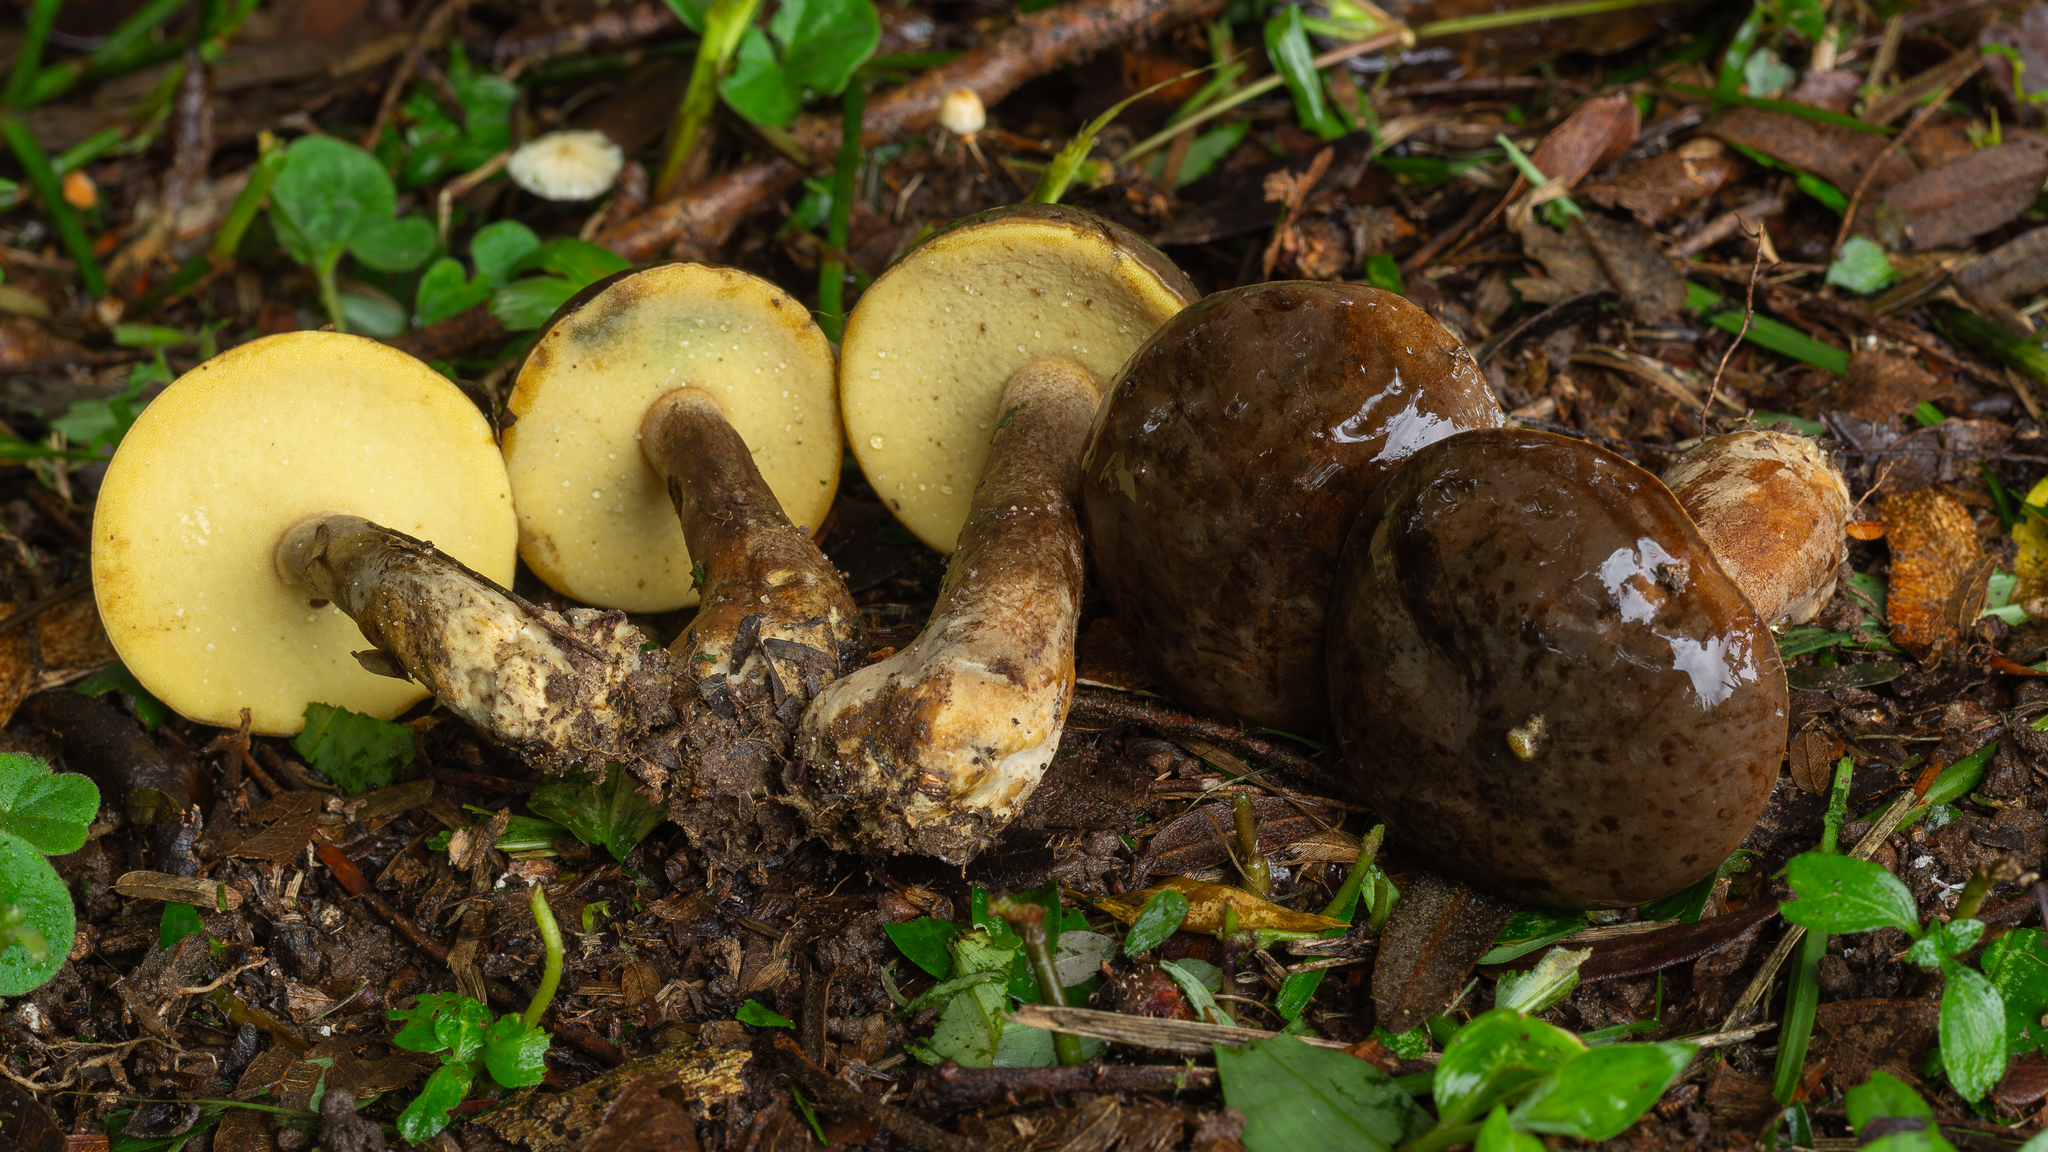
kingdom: Fungi
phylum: Basidiomycota
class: Agaricomycetes
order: Boletales
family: Boletinellaceae
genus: Phlebopus
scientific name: Phlebopus beniensis
